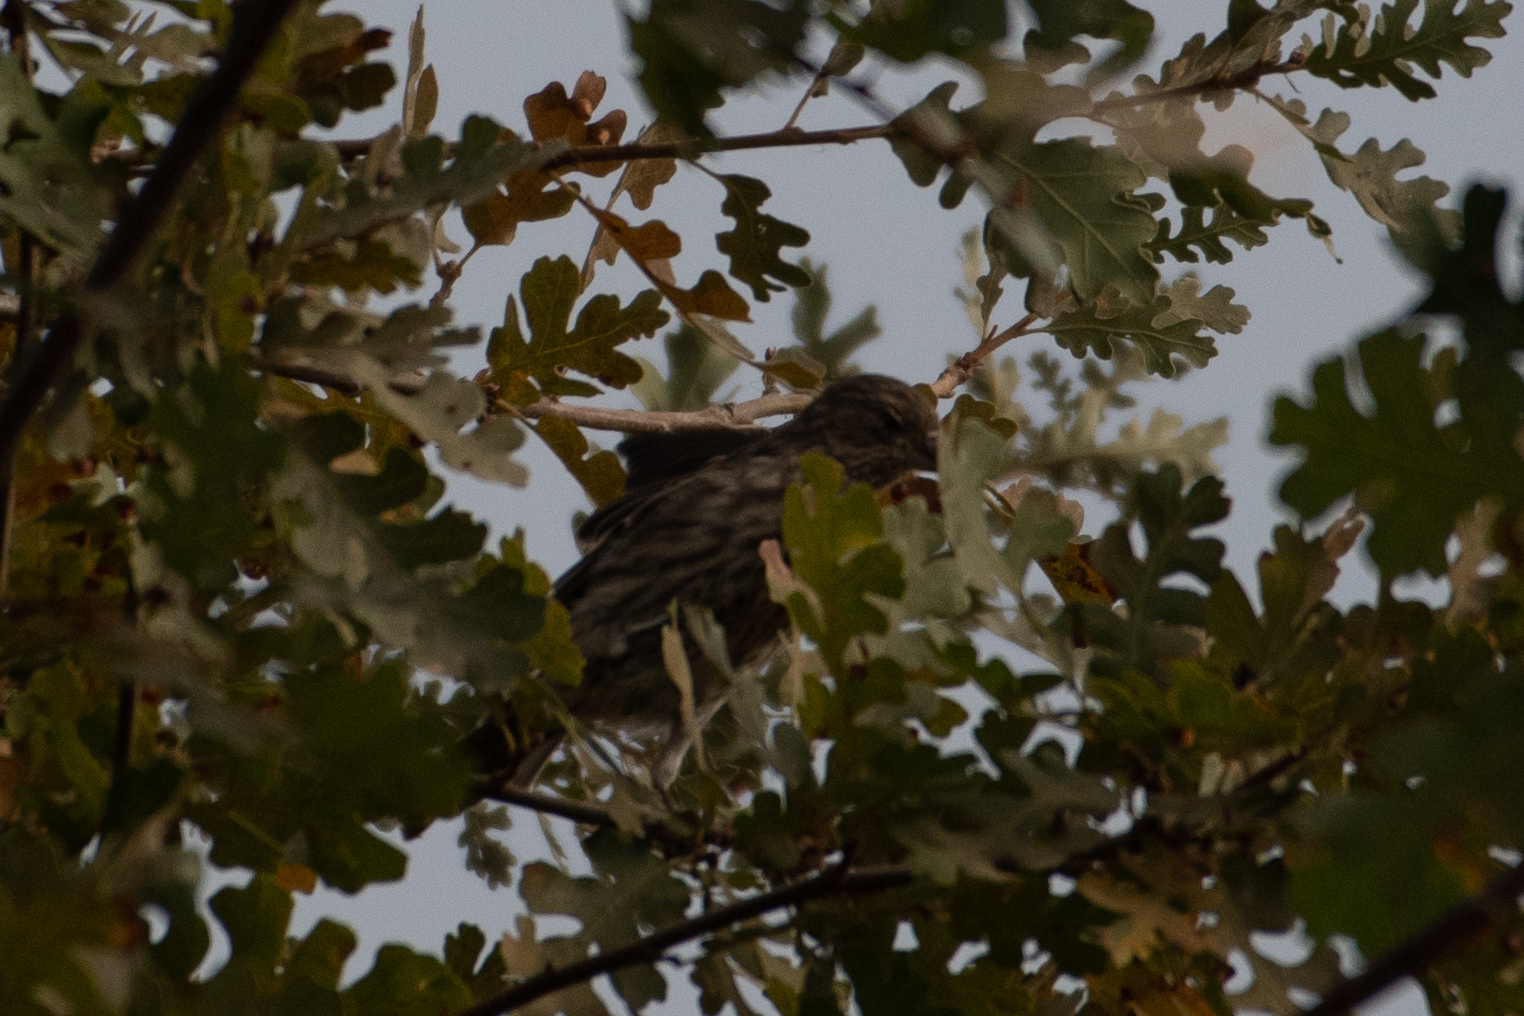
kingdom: Animalia
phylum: Chordata
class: Aves
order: Passeriformes
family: Fringillidae
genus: Haemorhous
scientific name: Haemorhous mexicanus
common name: House finch
